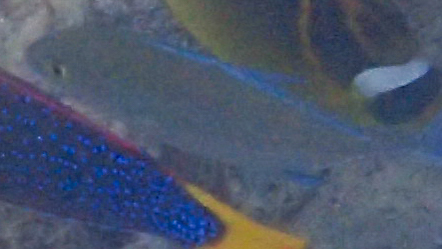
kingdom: Animalia
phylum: Chordata
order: Perciformes
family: Labridae
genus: Coris
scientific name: Coris gaimard
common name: Yellowtail coris
